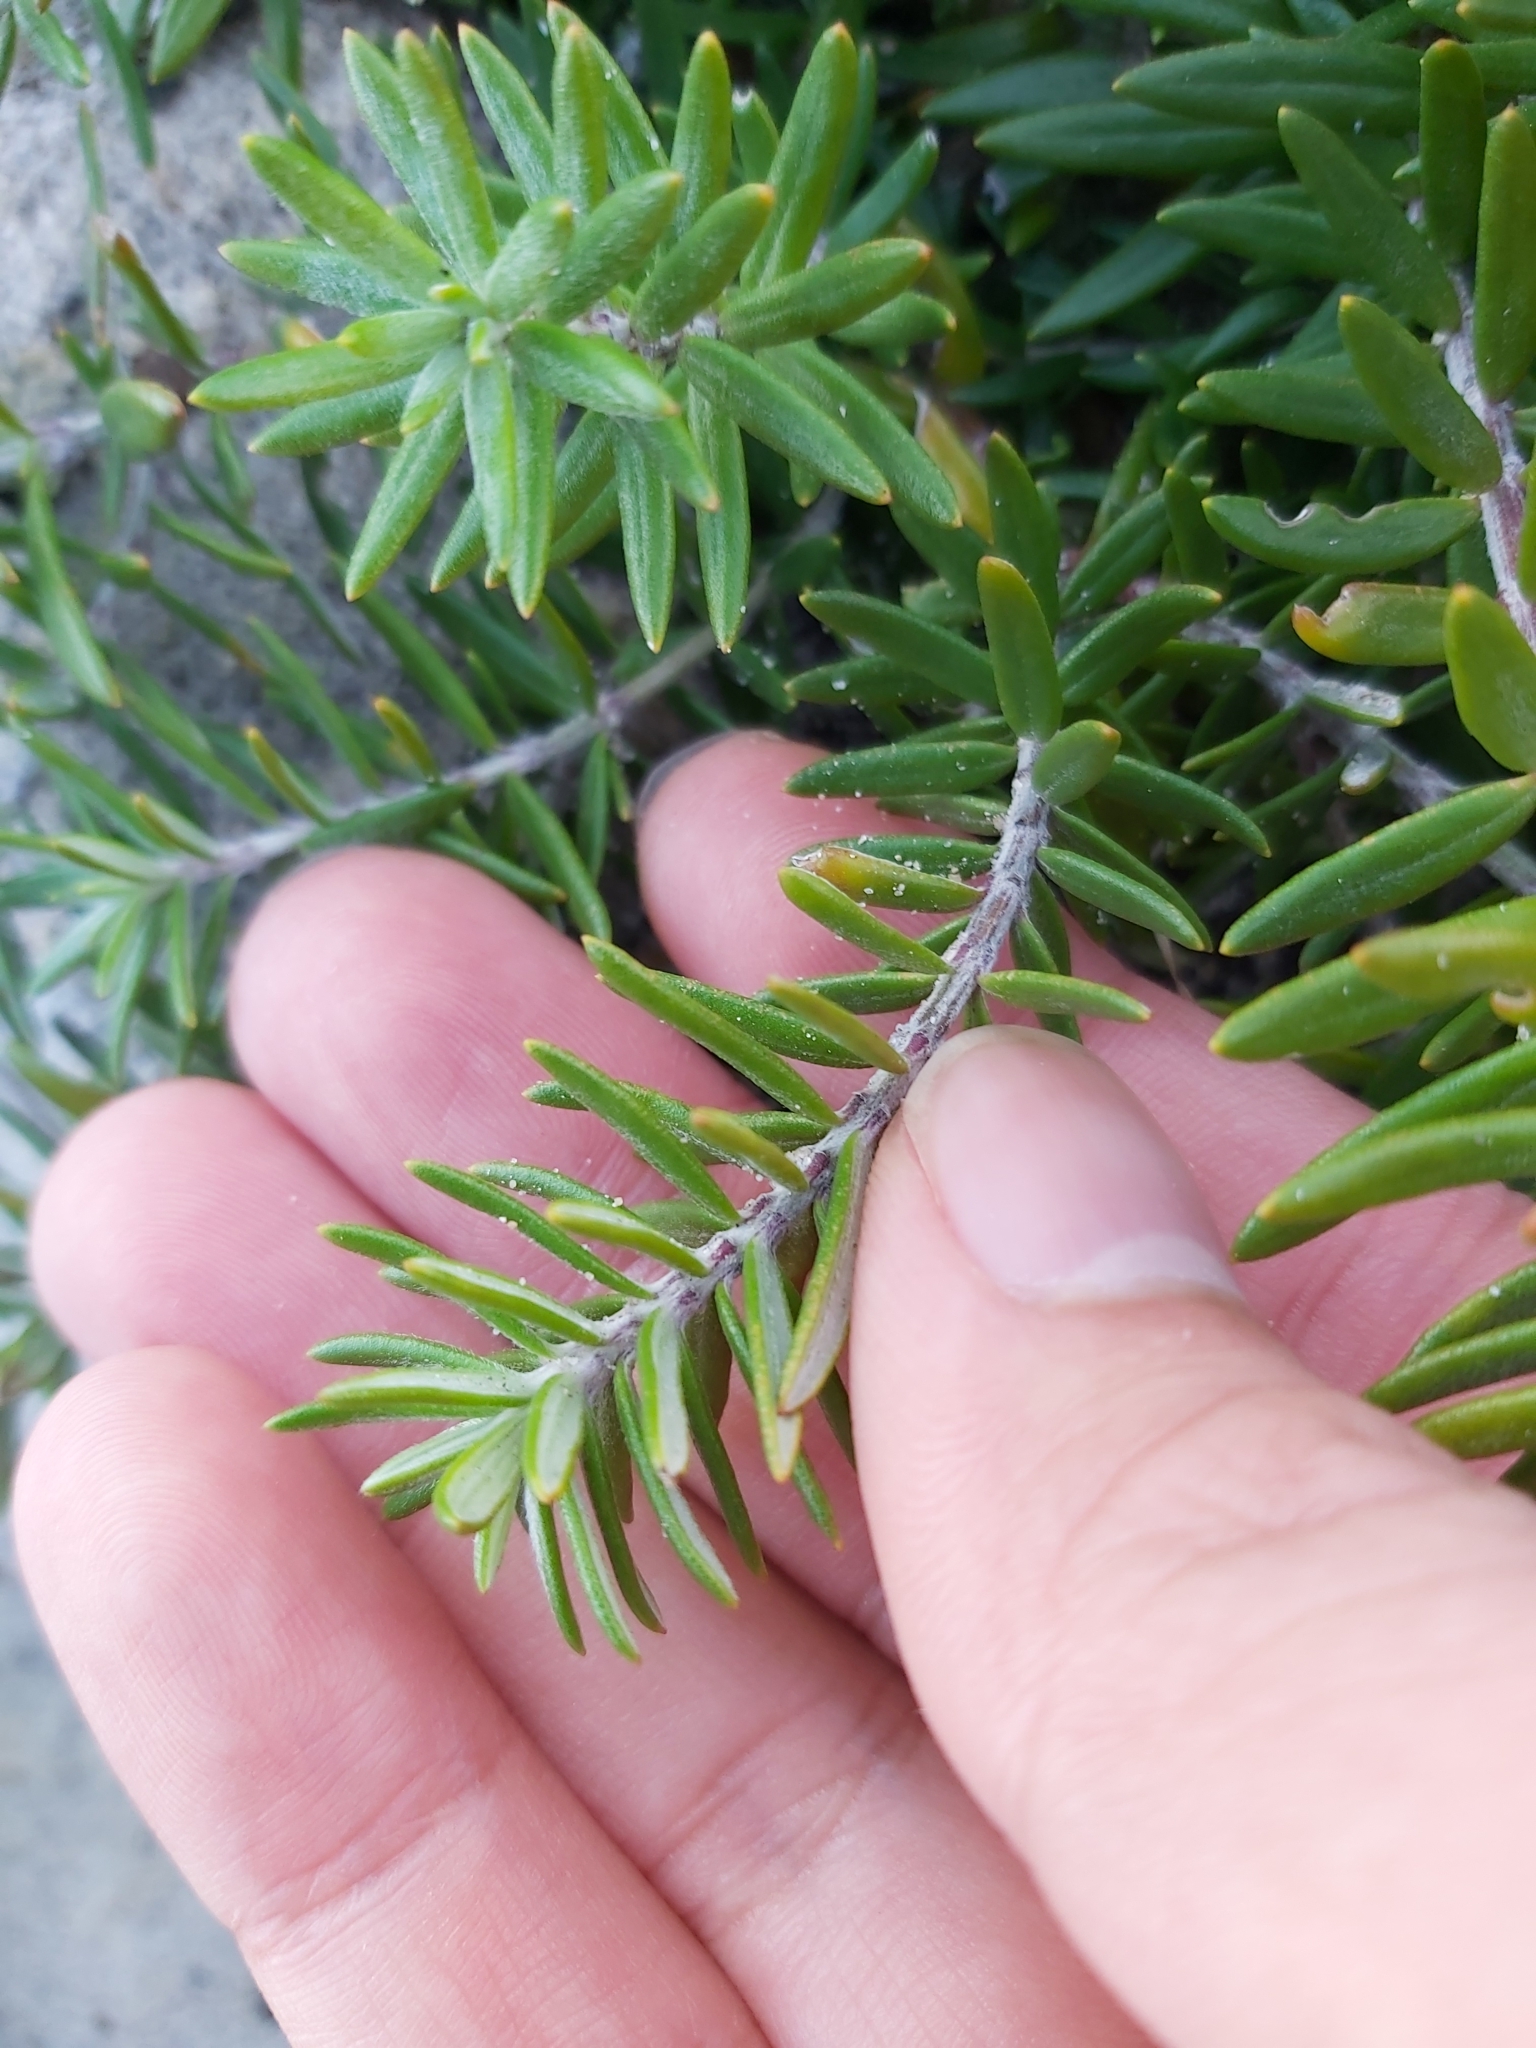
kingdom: Plantae
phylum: Tracheophyta
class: Magnoliopsida
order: Lamiales
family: Lamiaceae
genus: Westringia
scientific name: Westringia fruticosa
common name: Coastal-rosemary
